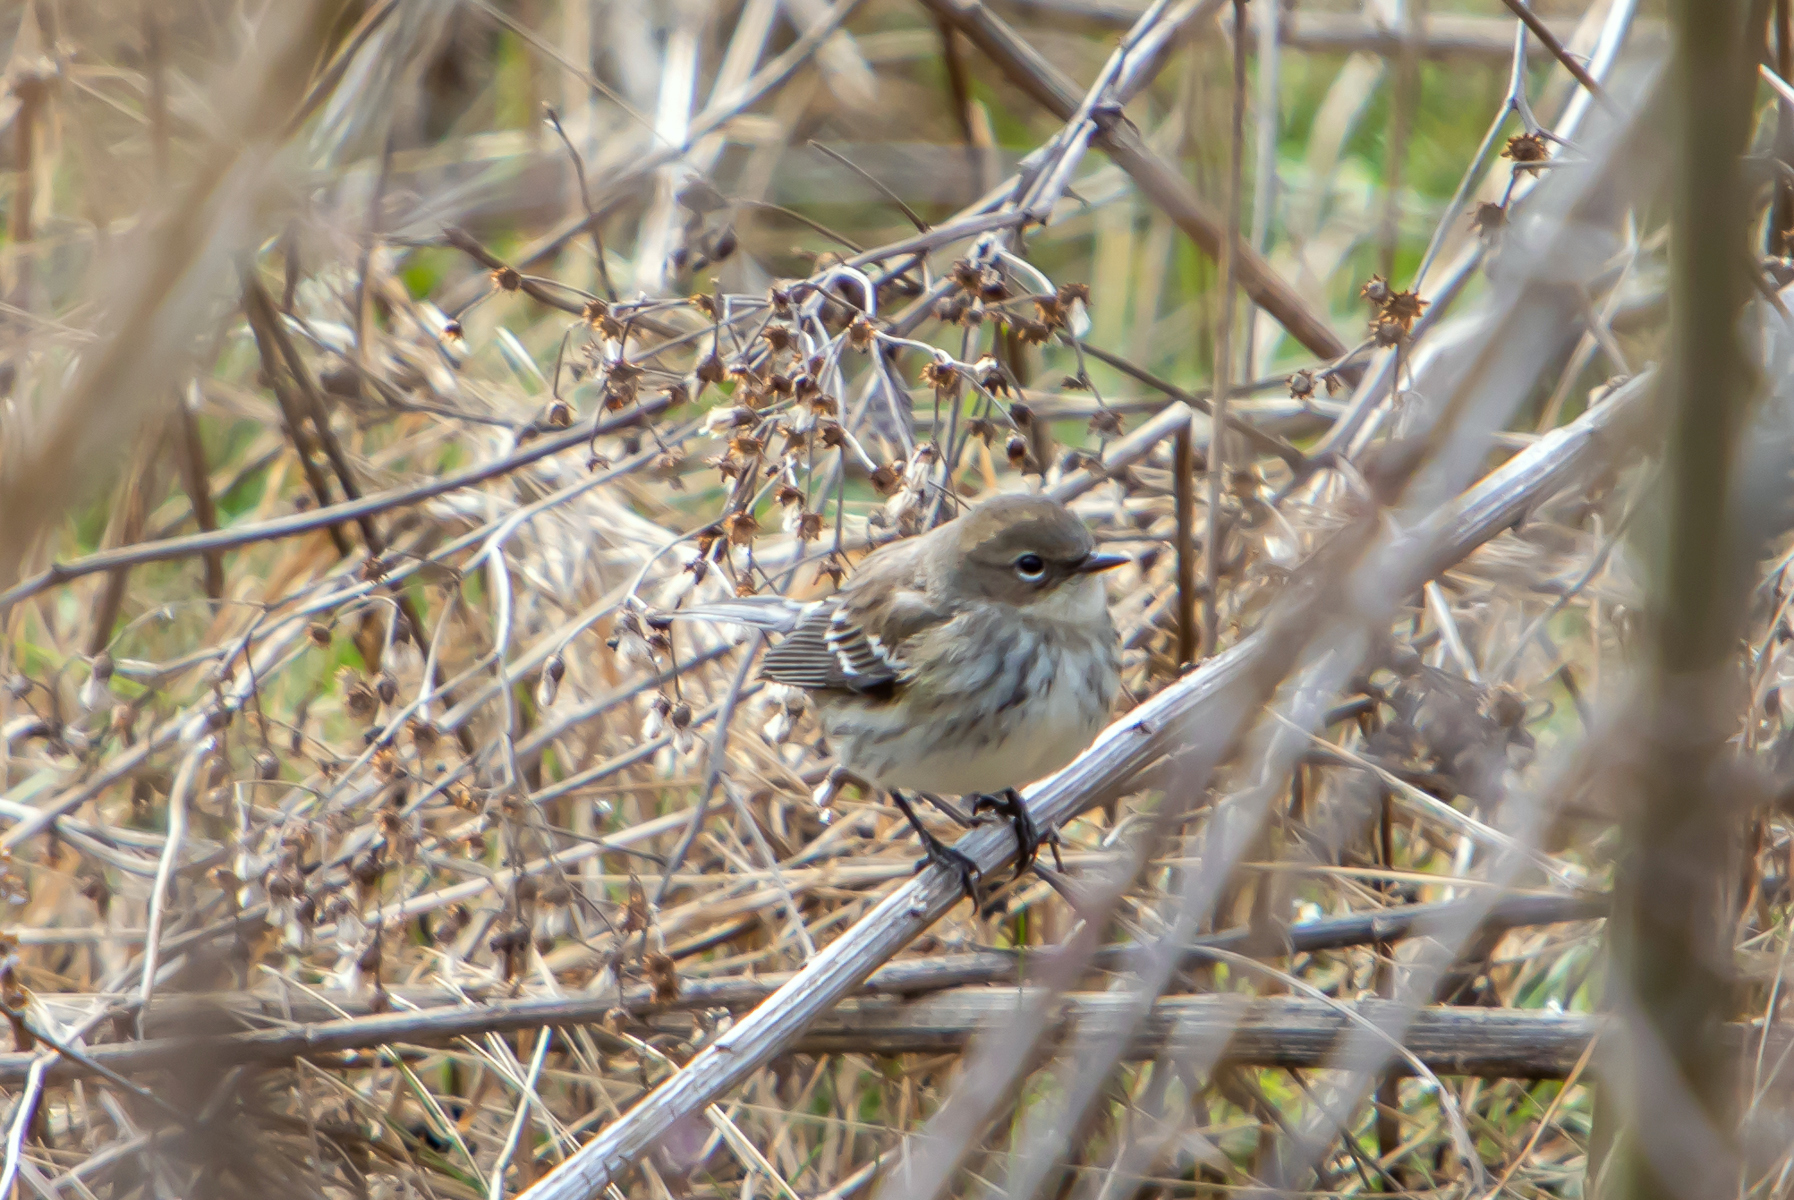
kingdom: Animalia
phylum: Chordata
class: Aves
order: Passeriformes
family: Parulidae
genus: Setophaga
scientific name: Setophaga coronata
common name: Myrtle warbler
